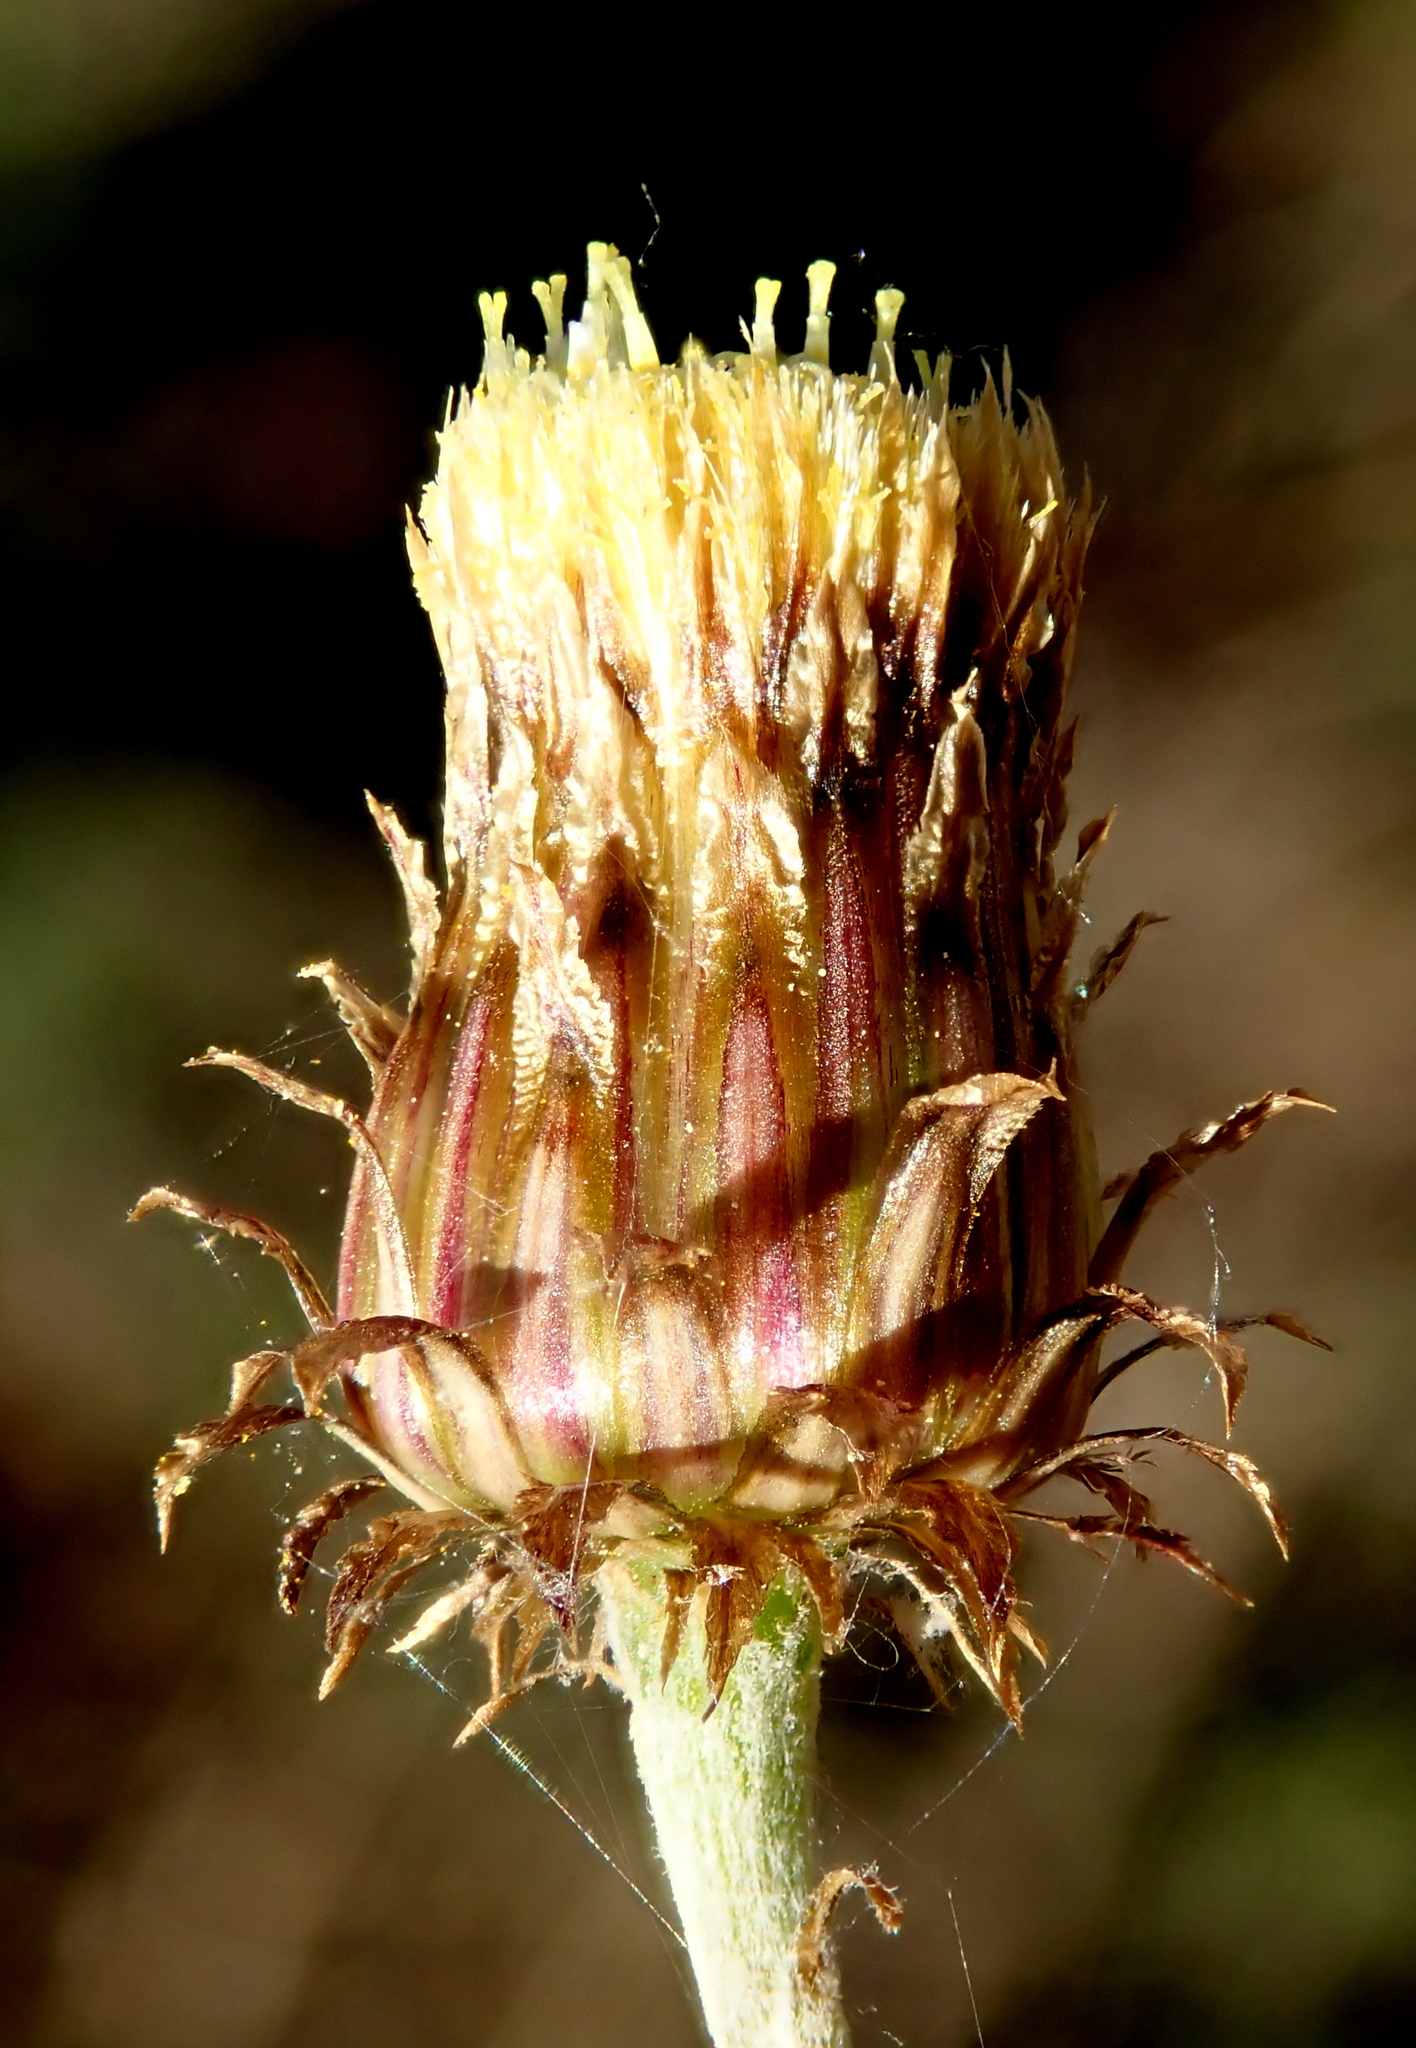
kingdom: Plantae
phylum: Tracheophyta
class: Magnoliopsida
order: Asterales
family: Asteraceae
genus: Phagnalon
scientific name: Phagnalon saxatile
